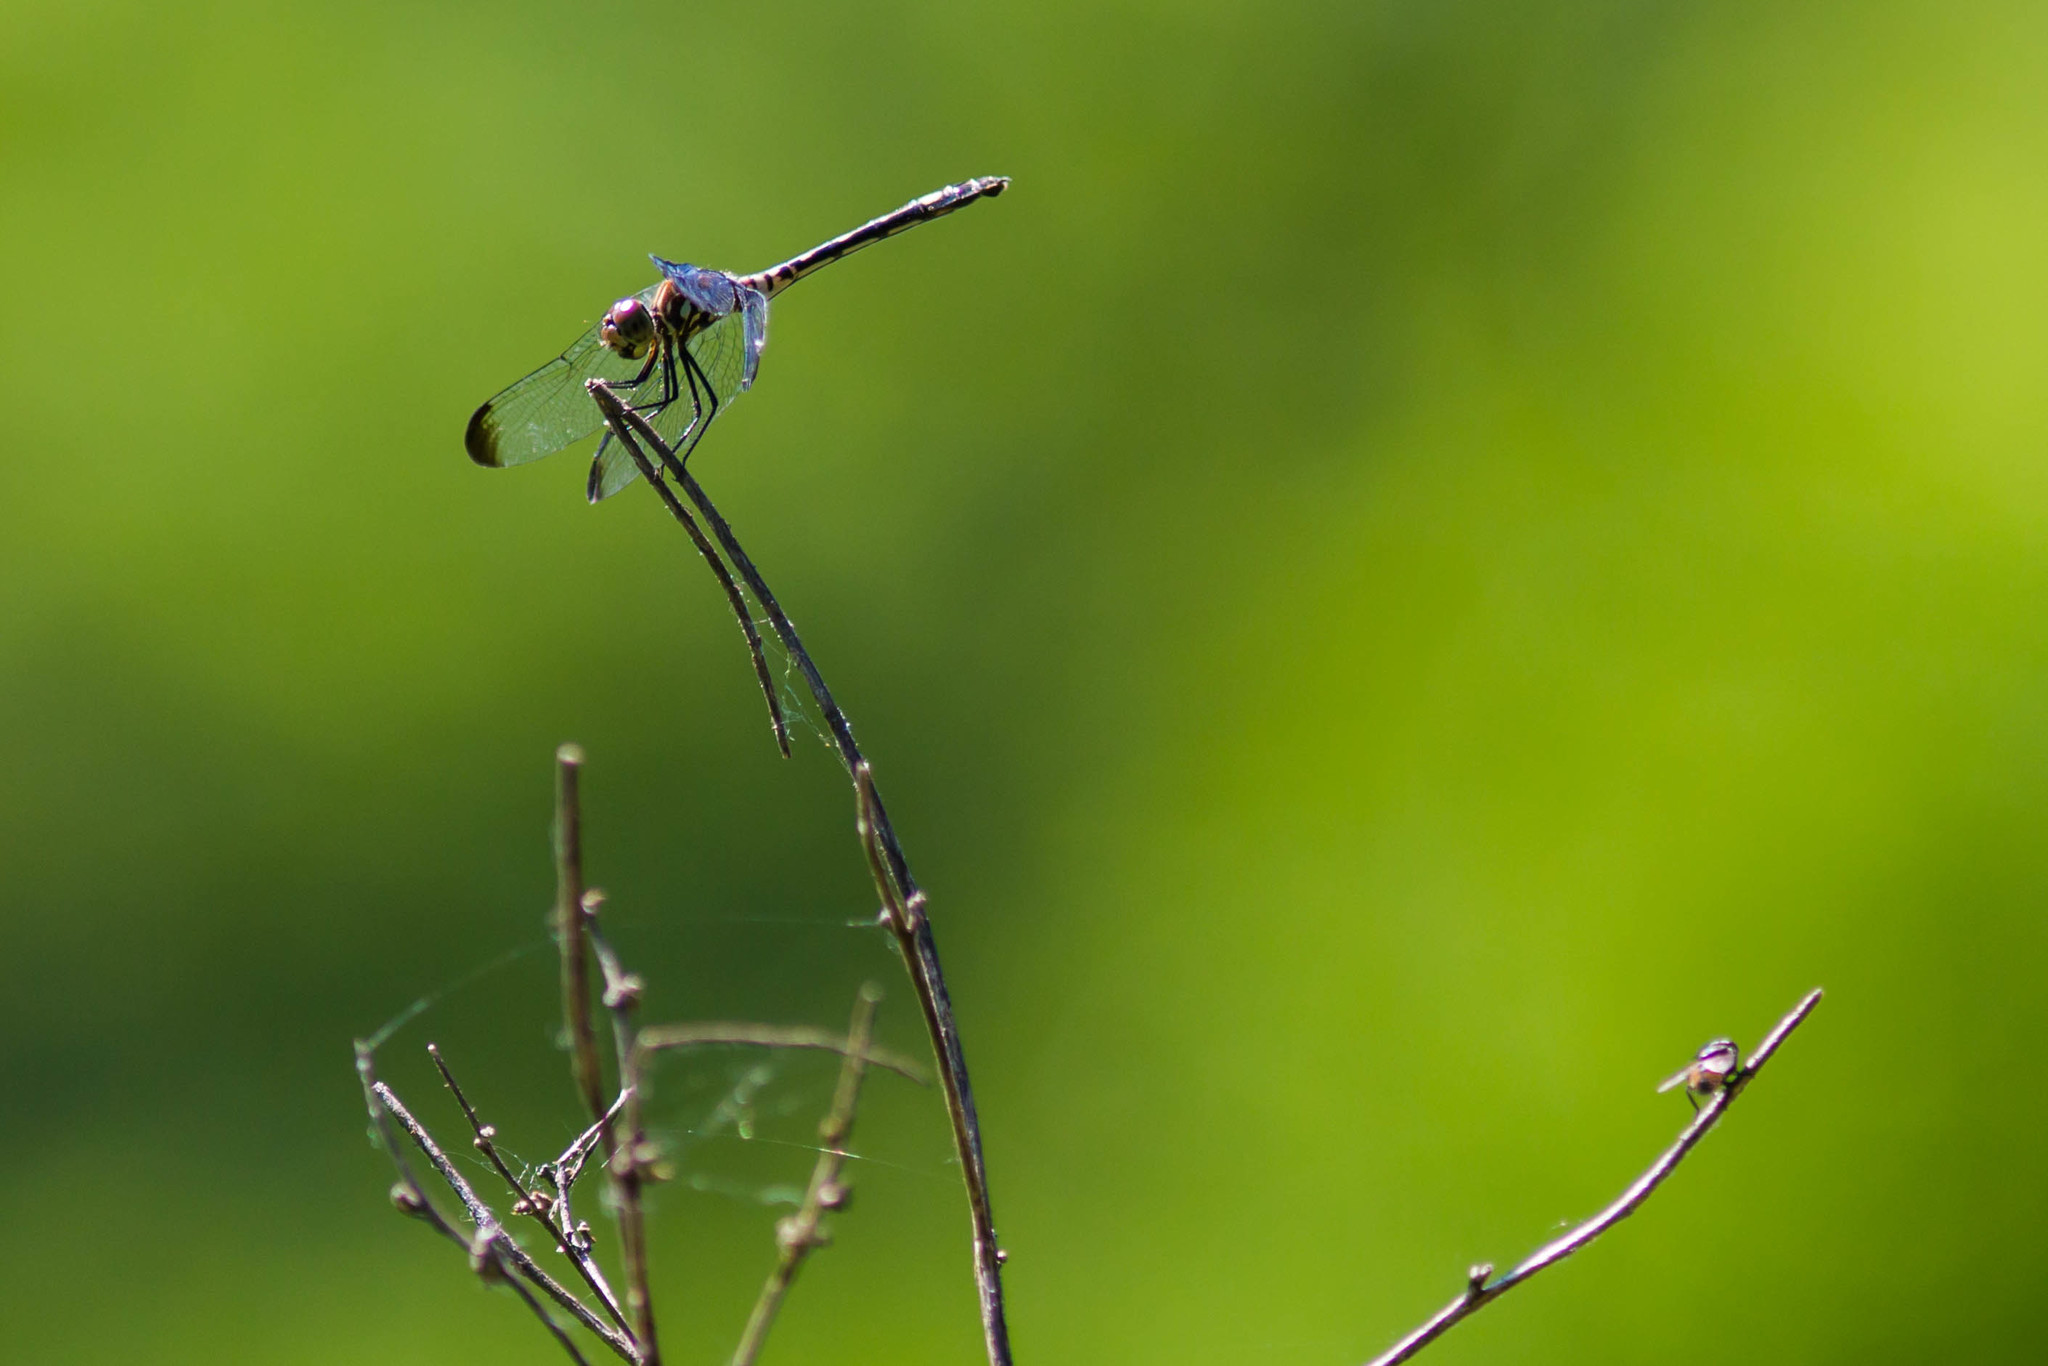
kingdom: Animalia
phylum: Arthropoda
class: Insecta
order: Odonata
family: Libellulidae
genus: Dythemis
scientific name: Dythemis velox
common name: Swift setwing
